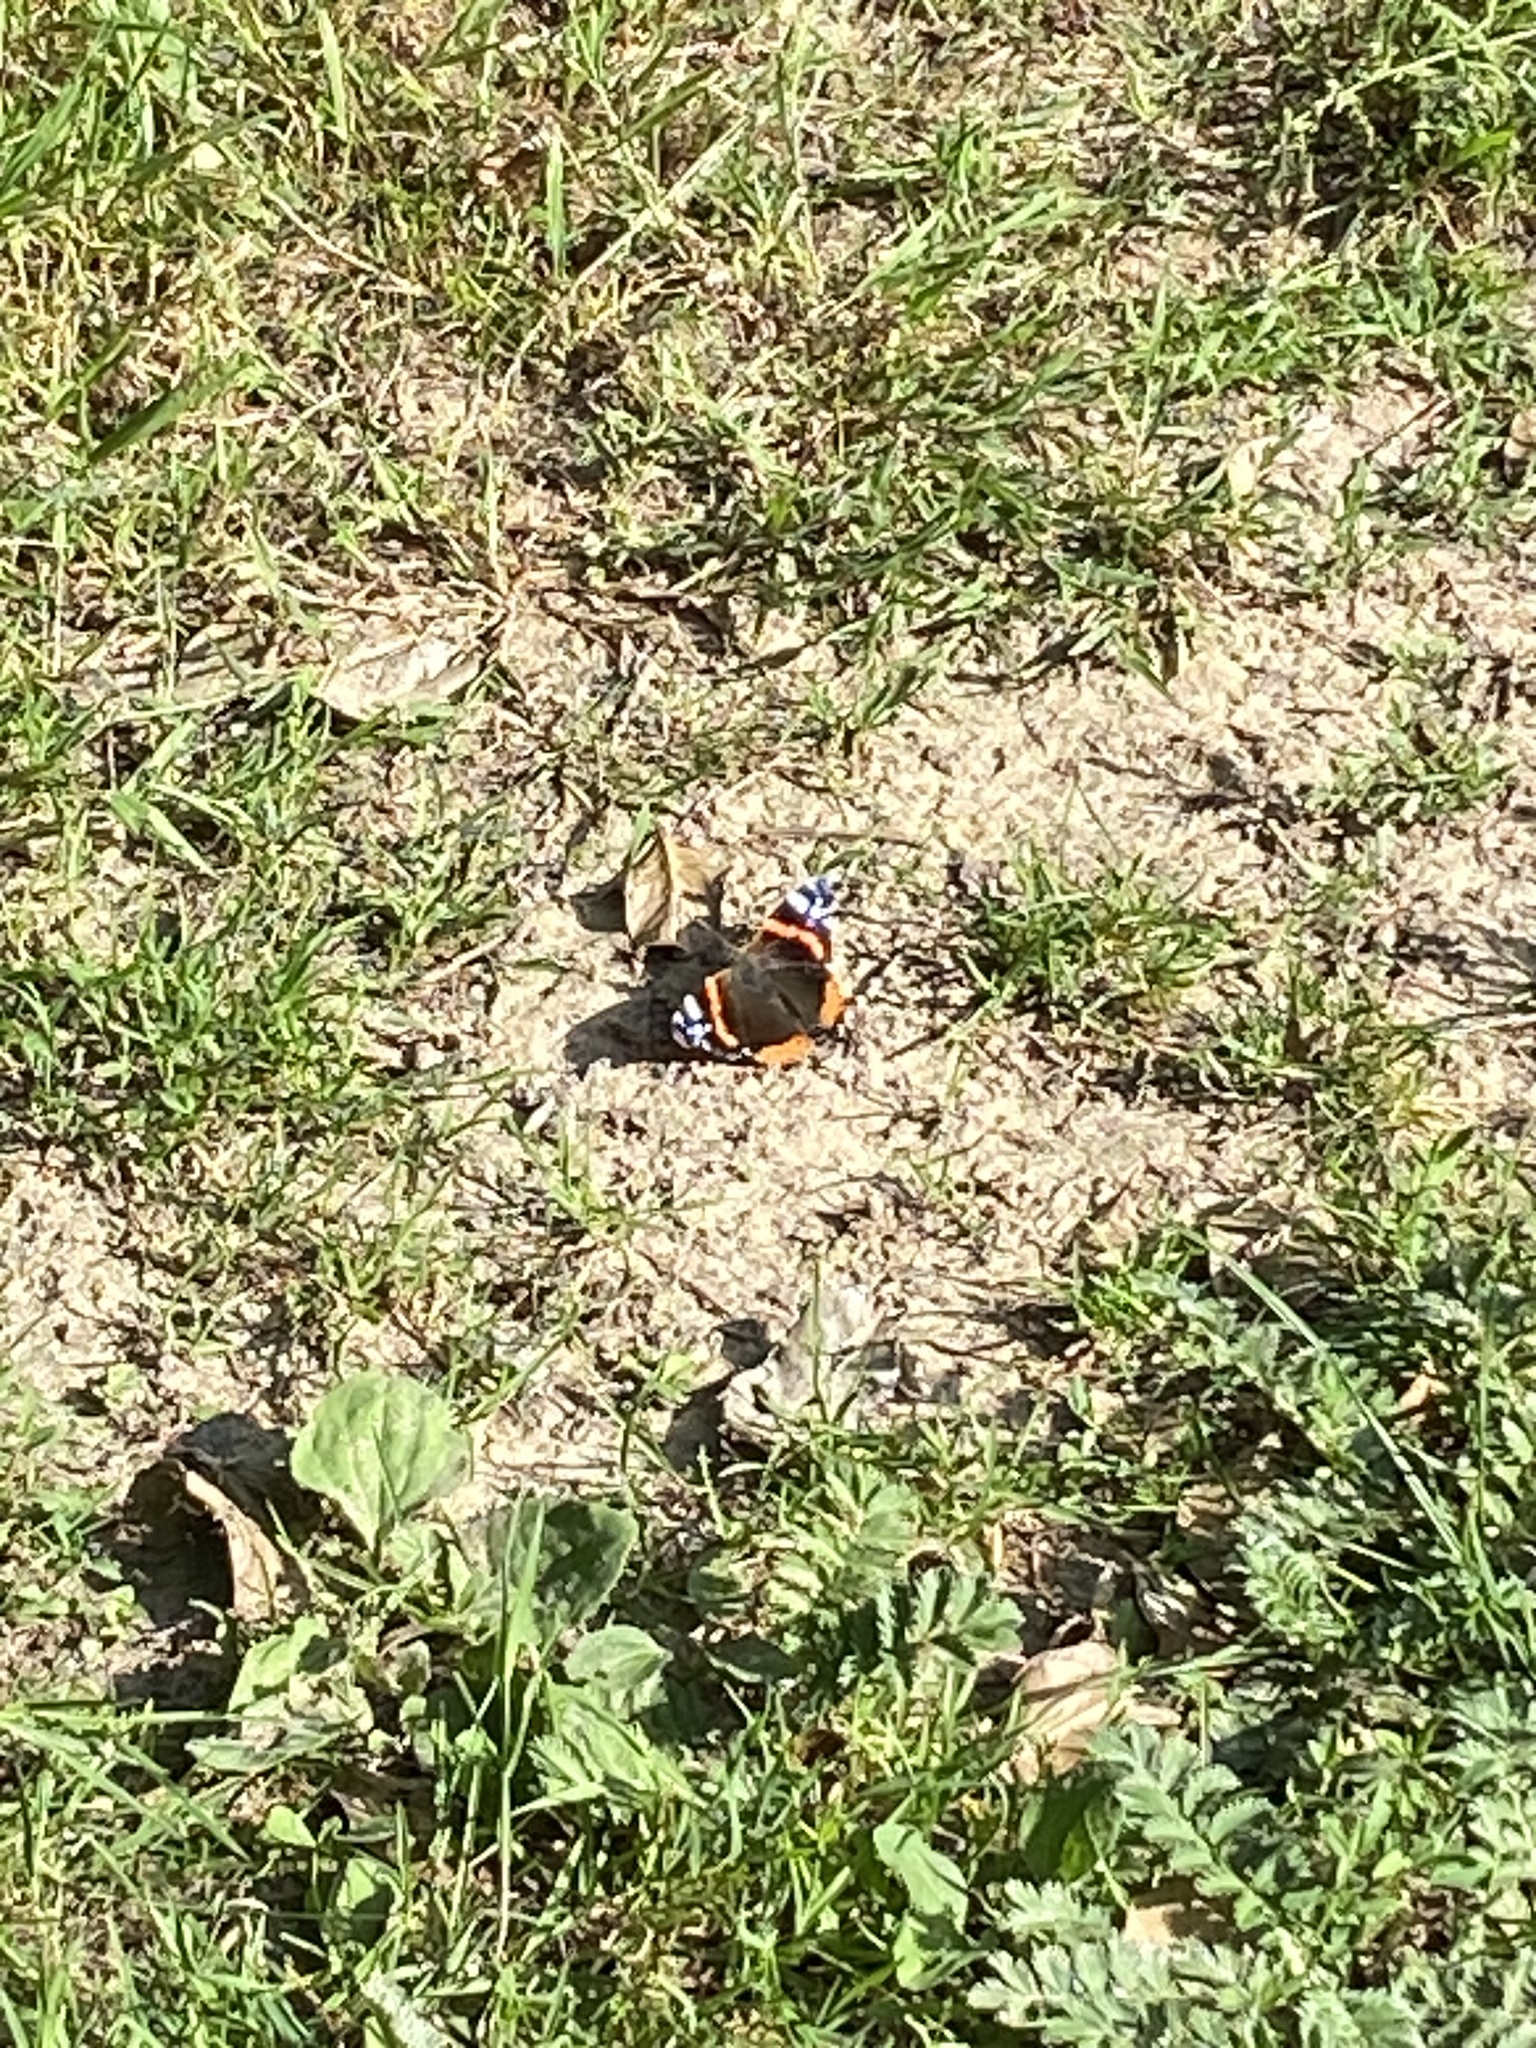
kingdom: Animalia
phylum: Arthropoda
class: Insecta
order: Lepidoptera
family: Nymphalidae
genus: Vanessa
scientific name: Vanessa atalanta
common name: Red admiral
